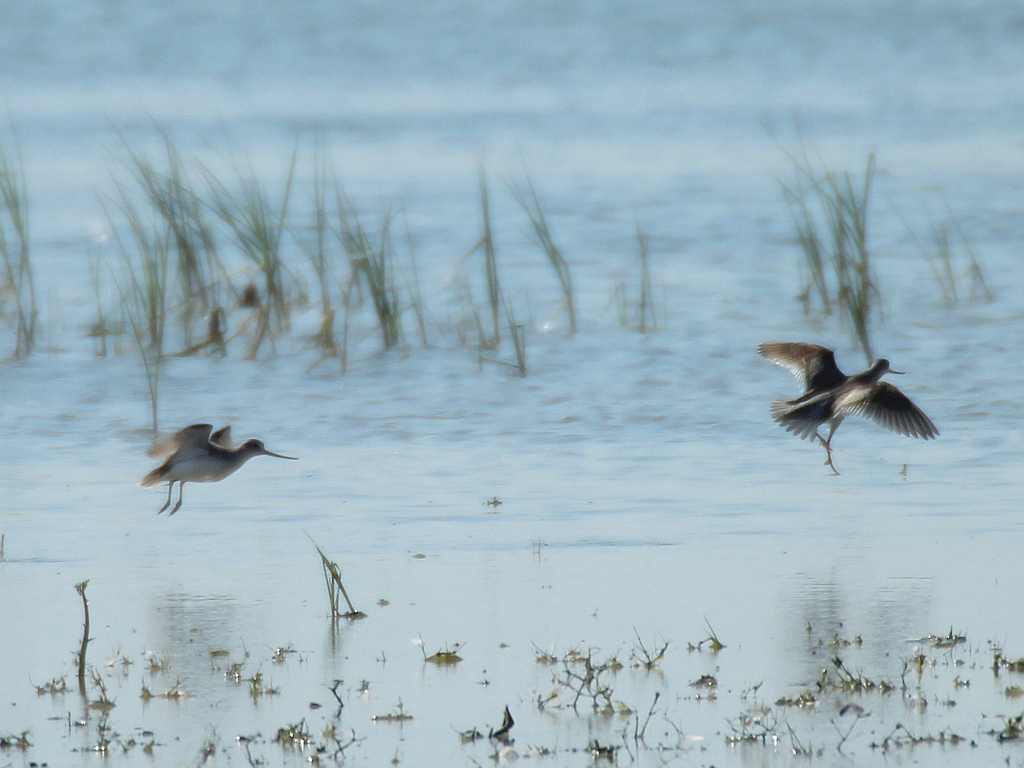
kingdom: Animalia
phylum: Chordata
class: Aves
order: Charadriiformes
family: Scolopacidae
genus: Xenus
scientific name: Xenus cinereus
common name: Terek sandpiper
